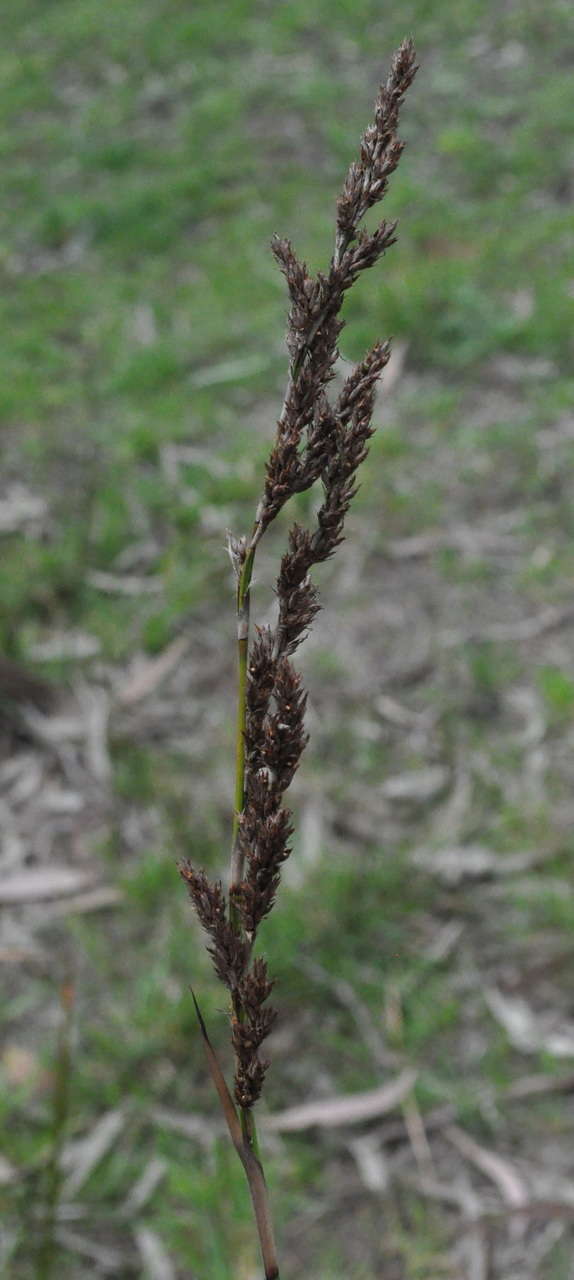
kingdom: Plantae
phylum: Tracheophyta
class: Liliopsida
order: Poales
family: Cyperaceae
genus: Lepidosperma
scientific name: Lepidosperma longitudinale
